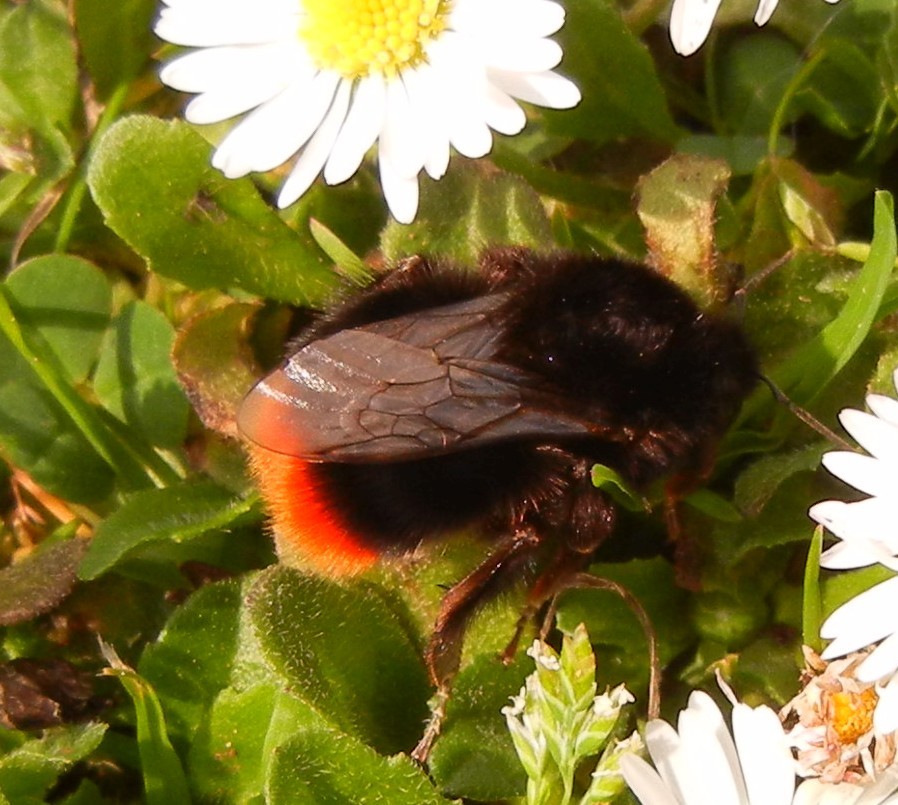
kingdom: Animalia
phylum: Arthropoda
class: Insecta
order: Hymenoptera
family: Apidae
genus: Bombus
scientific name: Bombus lapidarius
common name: Large red-tailed humble-bee
